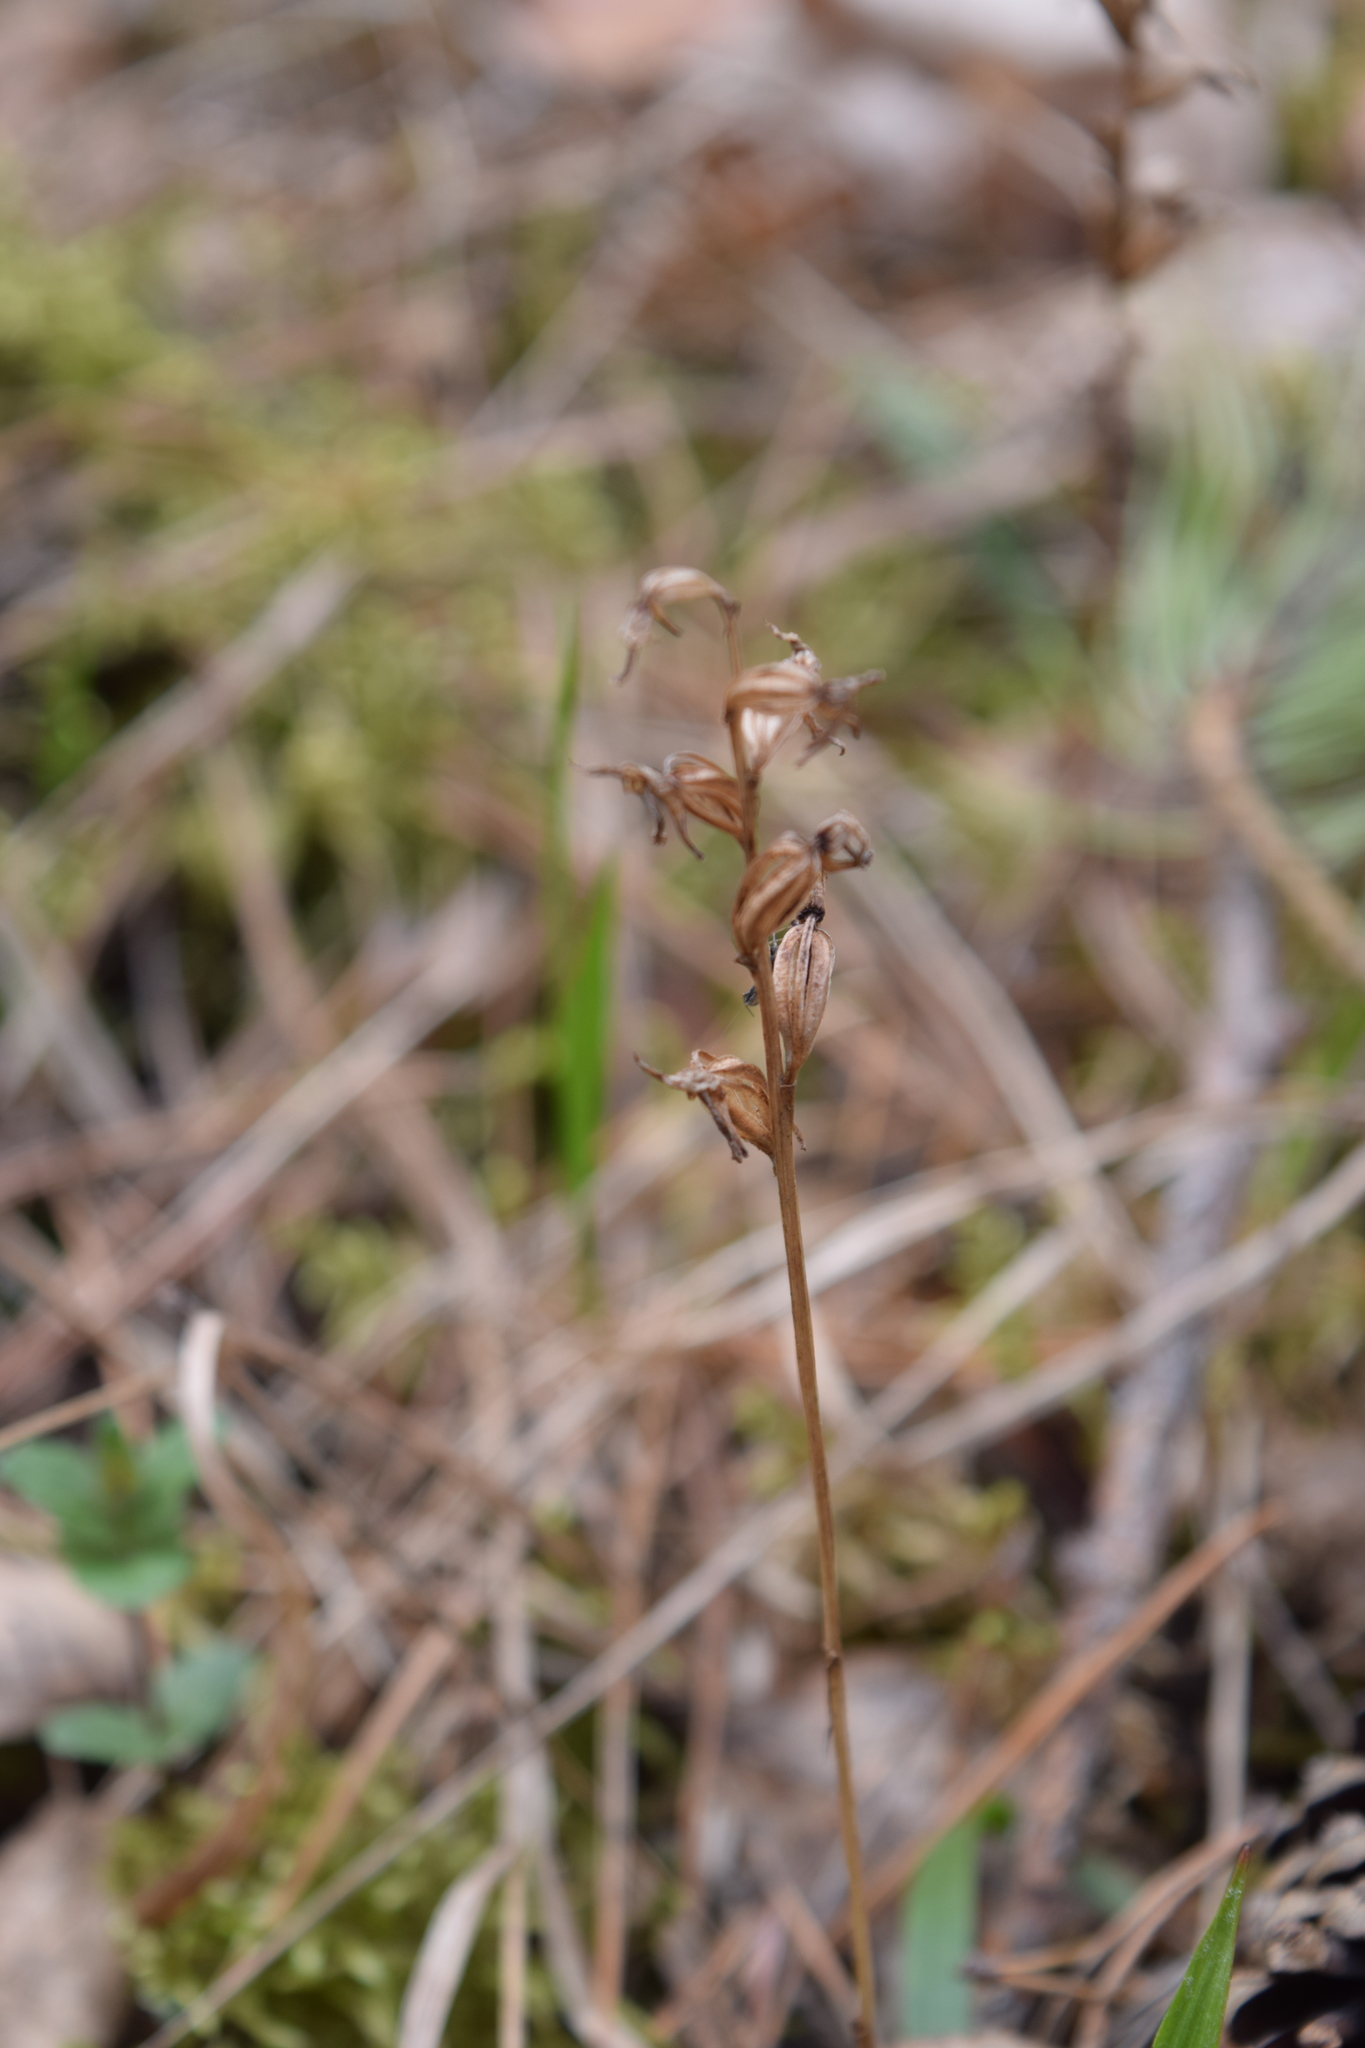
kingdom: Plantae
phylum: Tracheophyta
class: Liliopsida
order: Asparagales
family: Orchidaceae
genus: Goodyera
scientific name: Goodyera repens
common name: Creeping lady's-tresses
